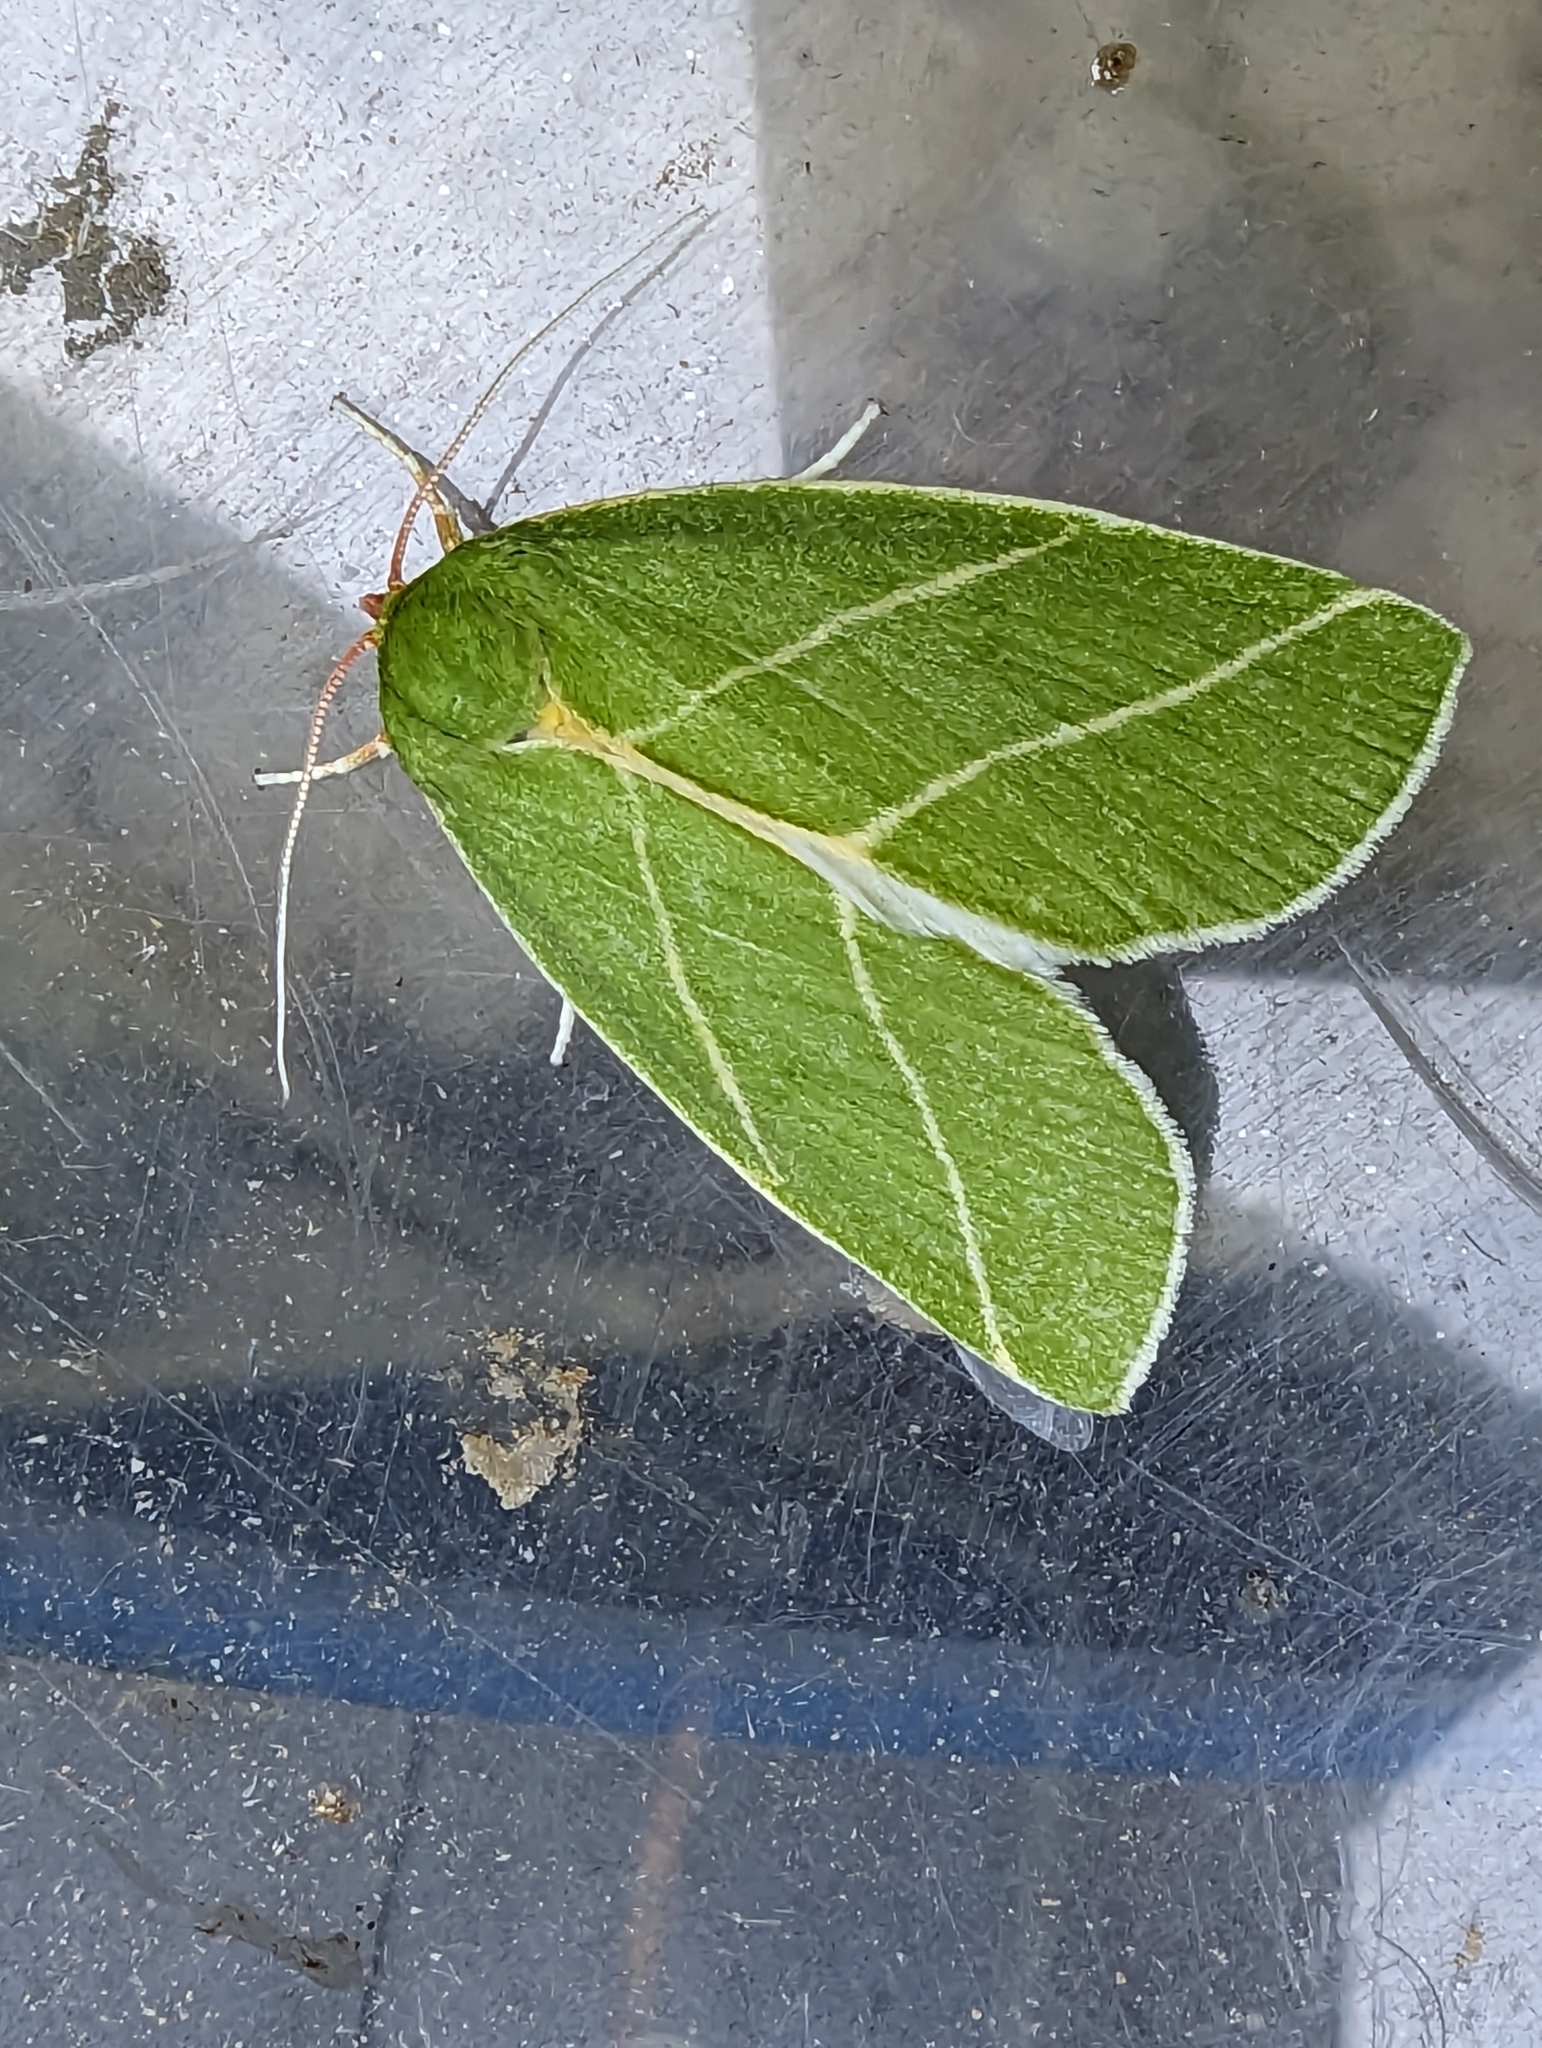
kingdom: Animalia
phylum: Arthropoda
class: Insecta
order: Lepidoptera
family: Nolidae
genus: Bena
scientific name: Bena bicolorana
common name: Scarce silver-lines
